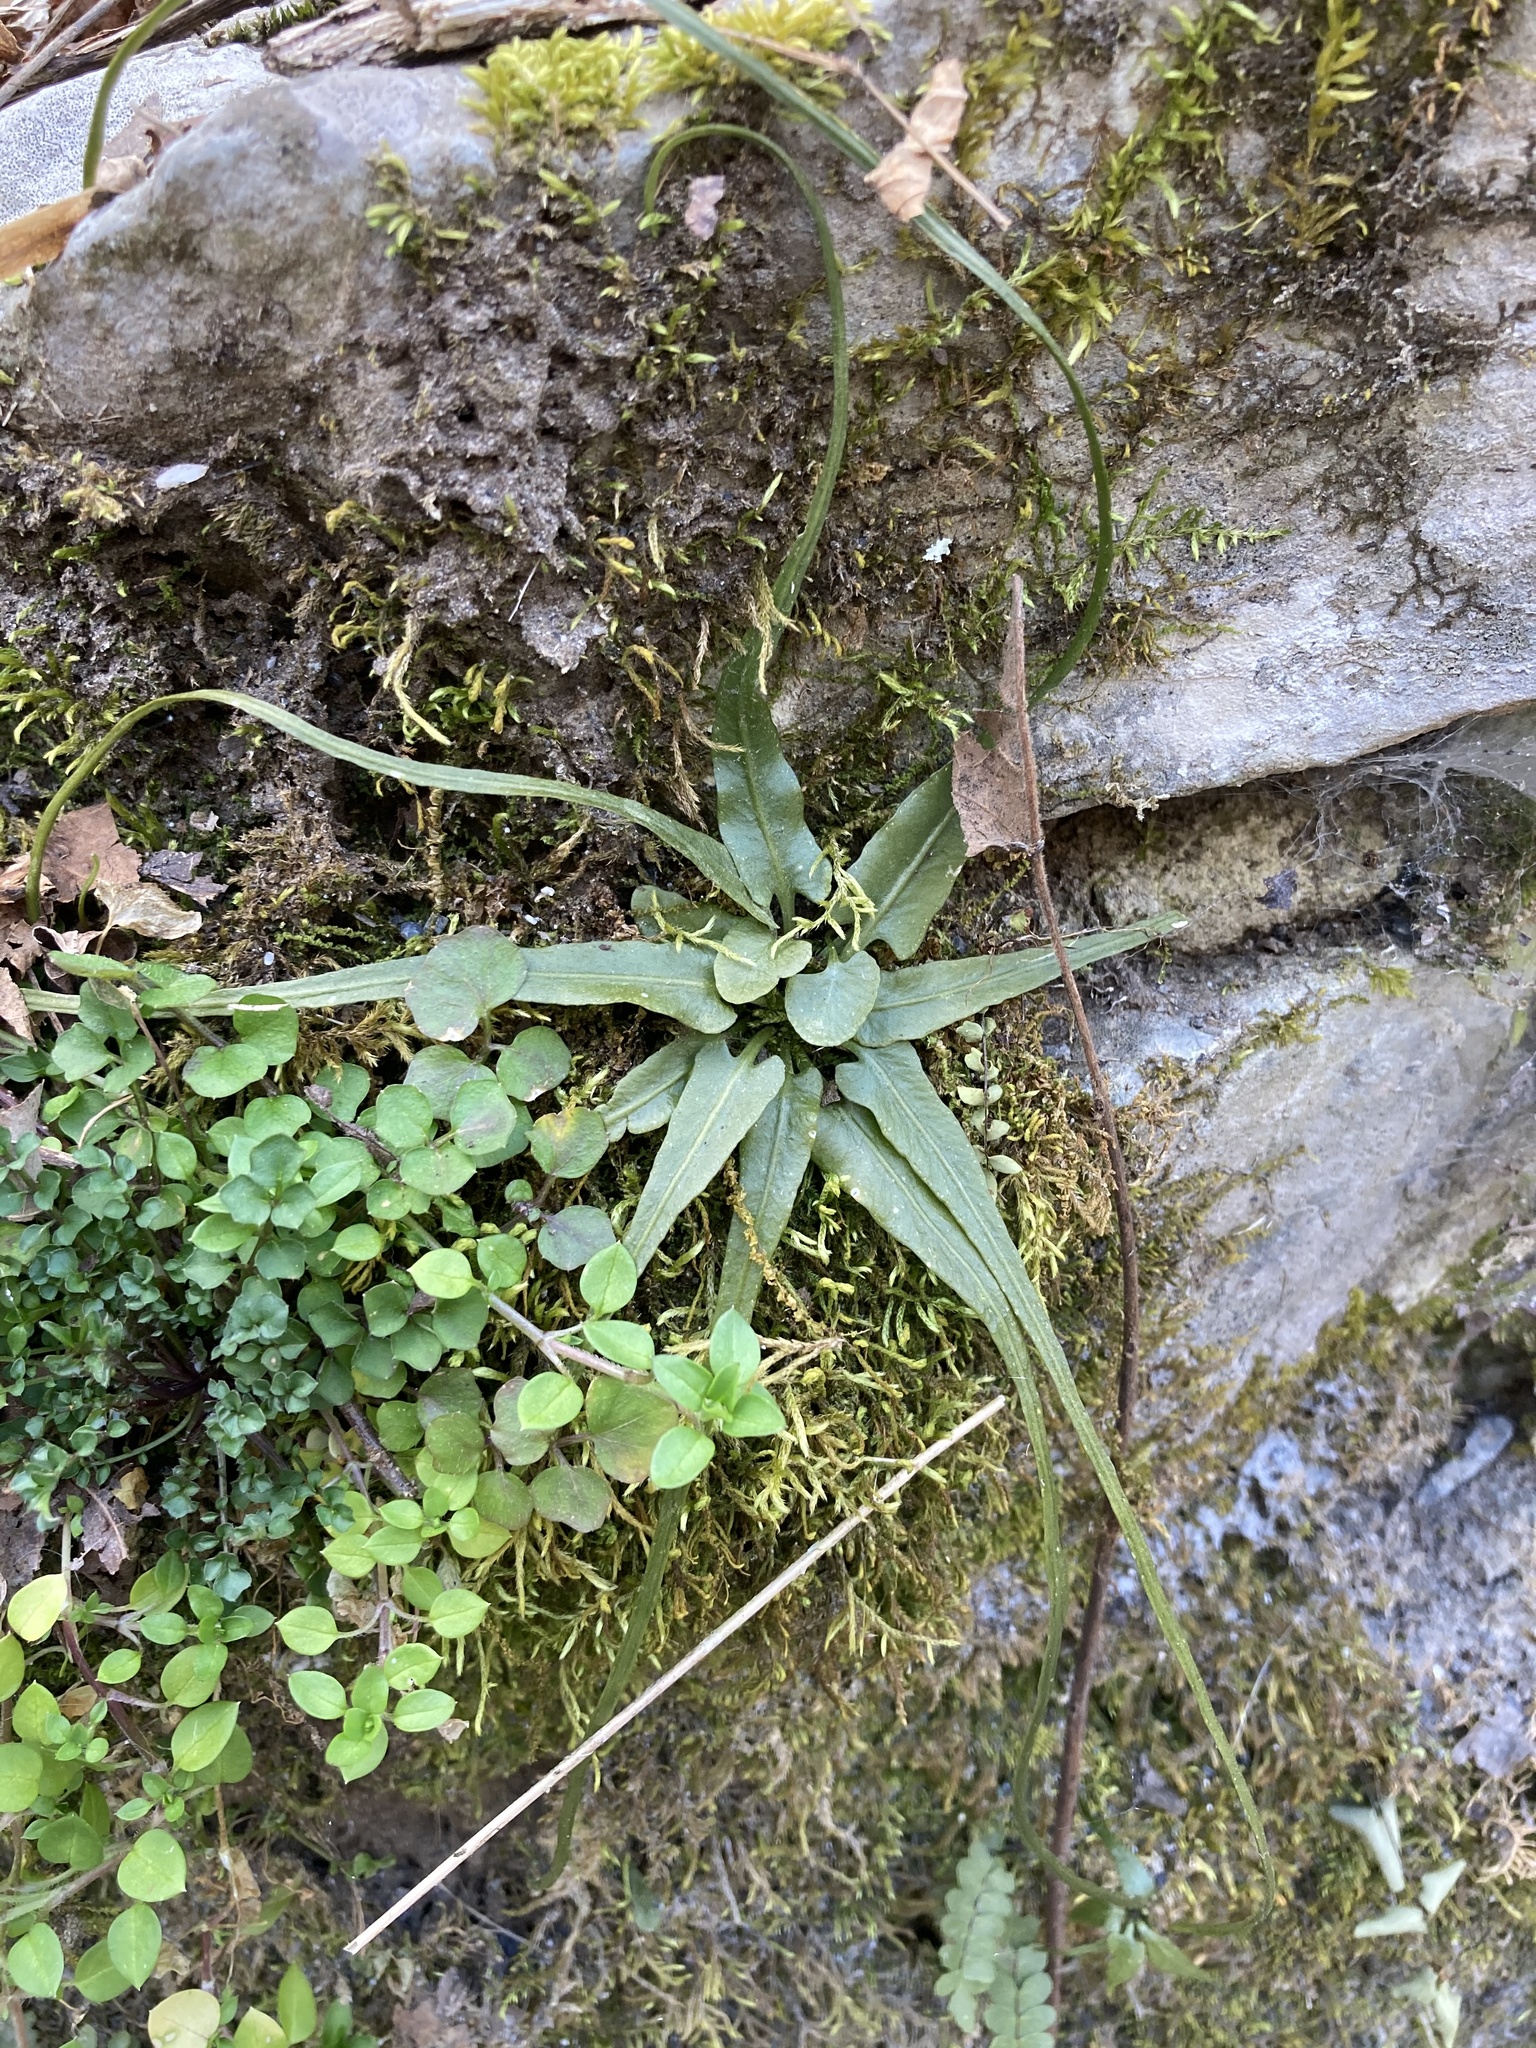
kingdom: Plantae
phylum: Tracheophyta
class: Polypodiopsida
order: Polypodiales
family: Aspleniaceae
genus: Asplenium
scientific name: Asplenium rhizophyllum
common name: Walking fern
